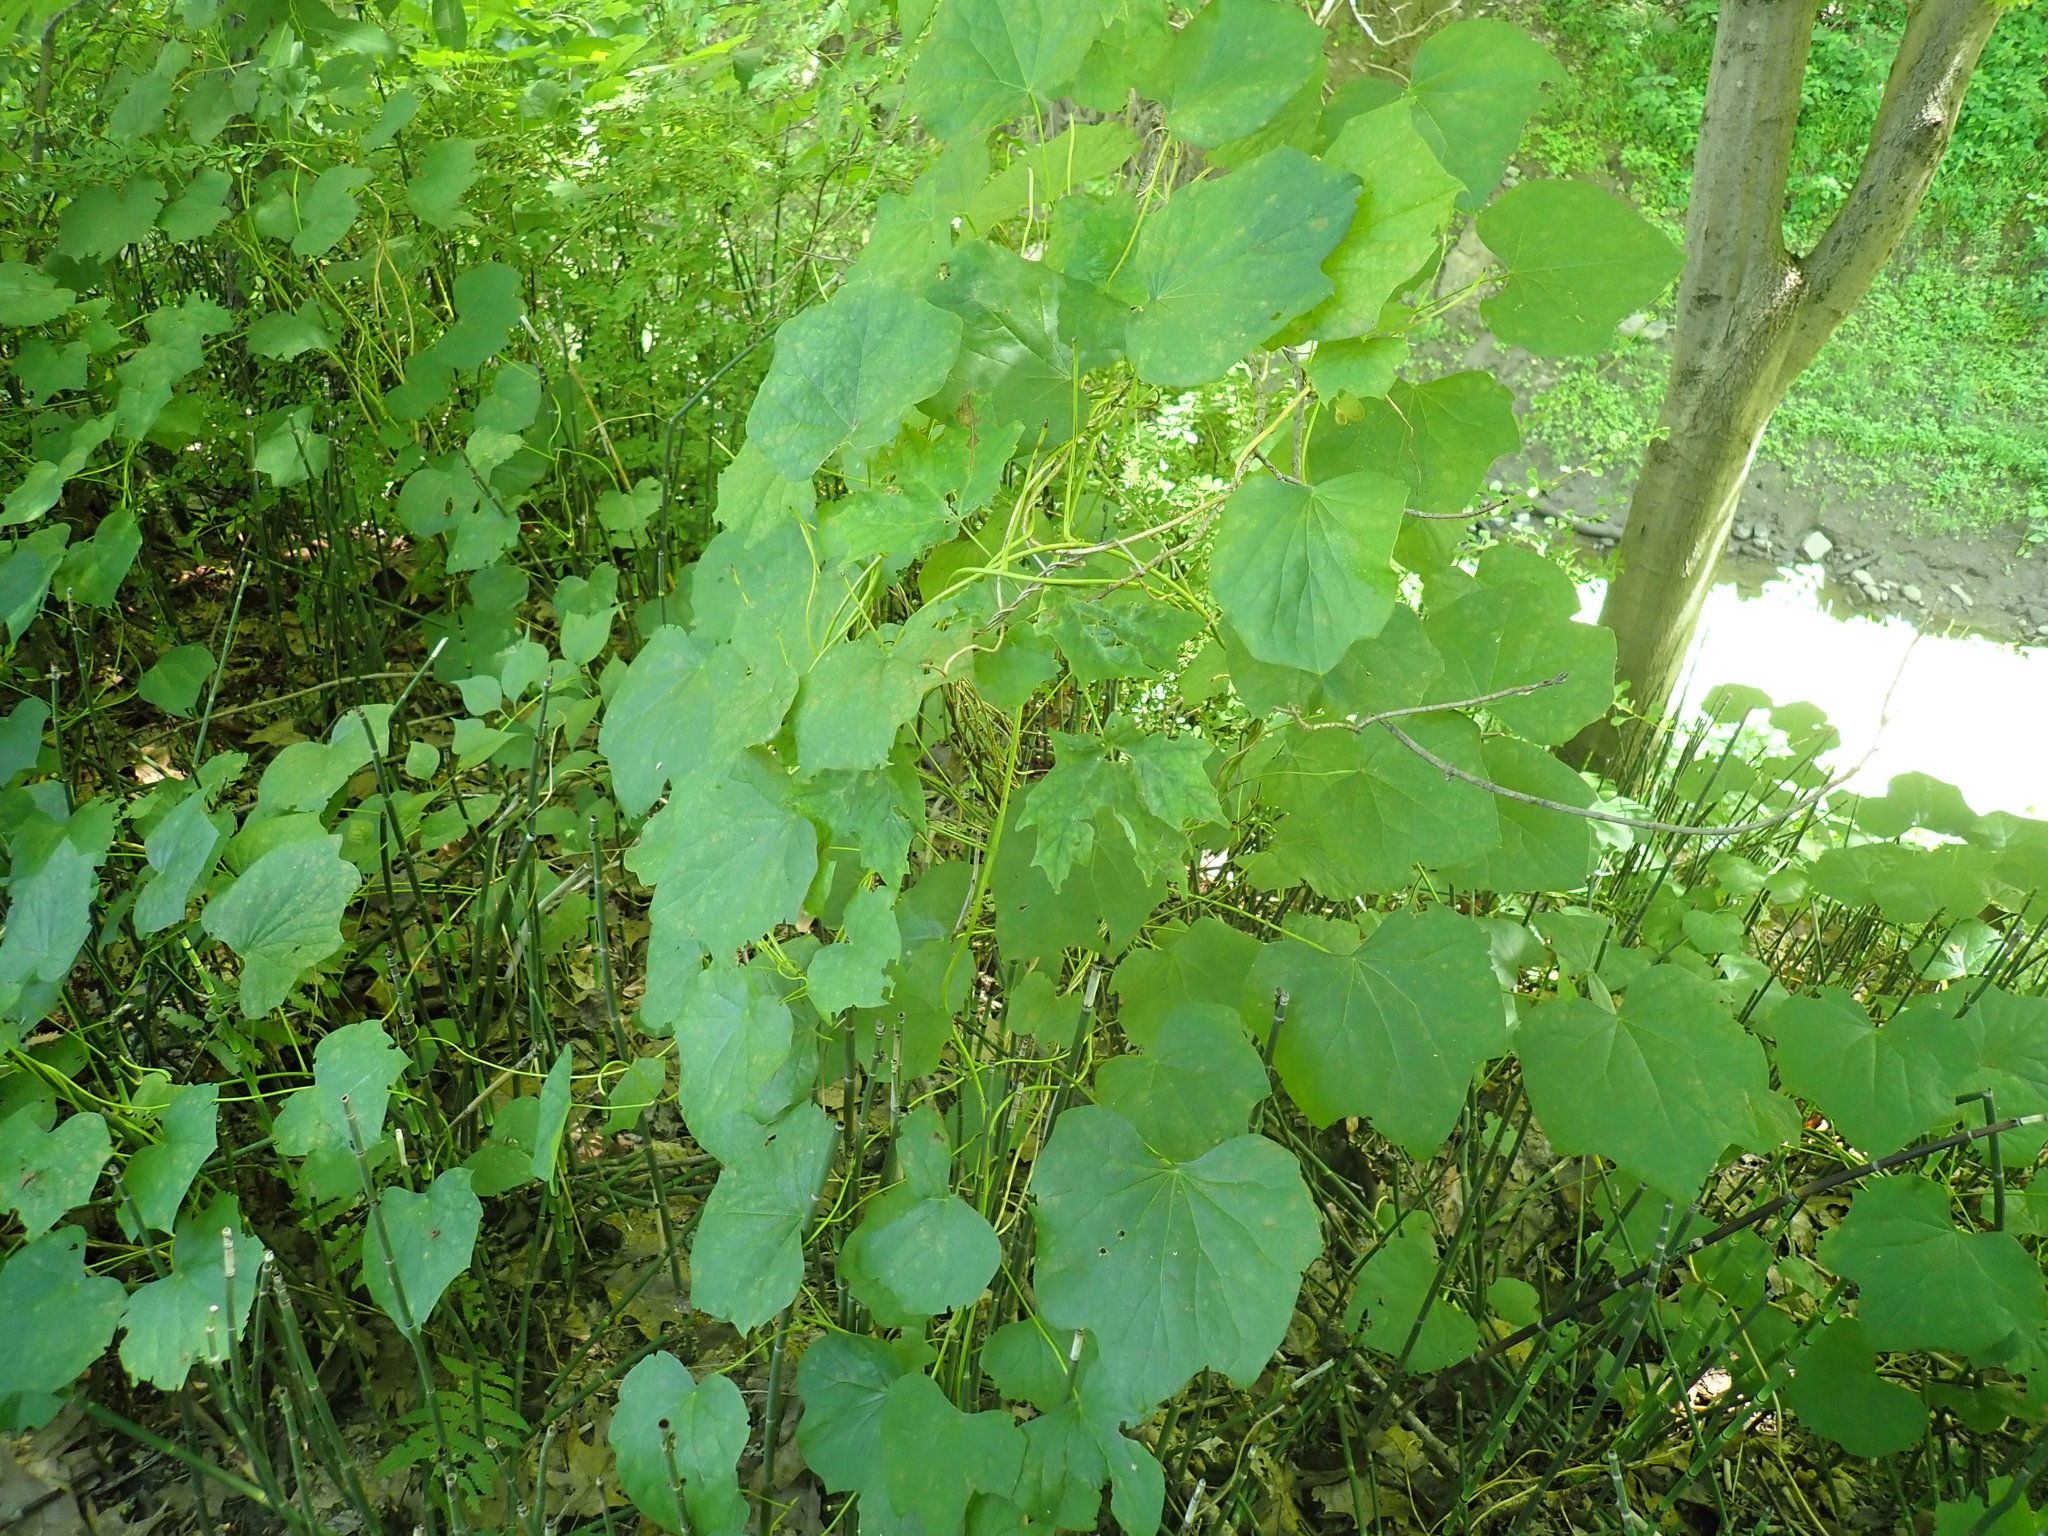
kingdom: Plantae
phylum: Tracheophyta
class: Magnoliopsida
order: Ranunculales
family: Menispermaceae
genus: Menispermum
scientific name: Menispermum canadense
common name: Moonseed
